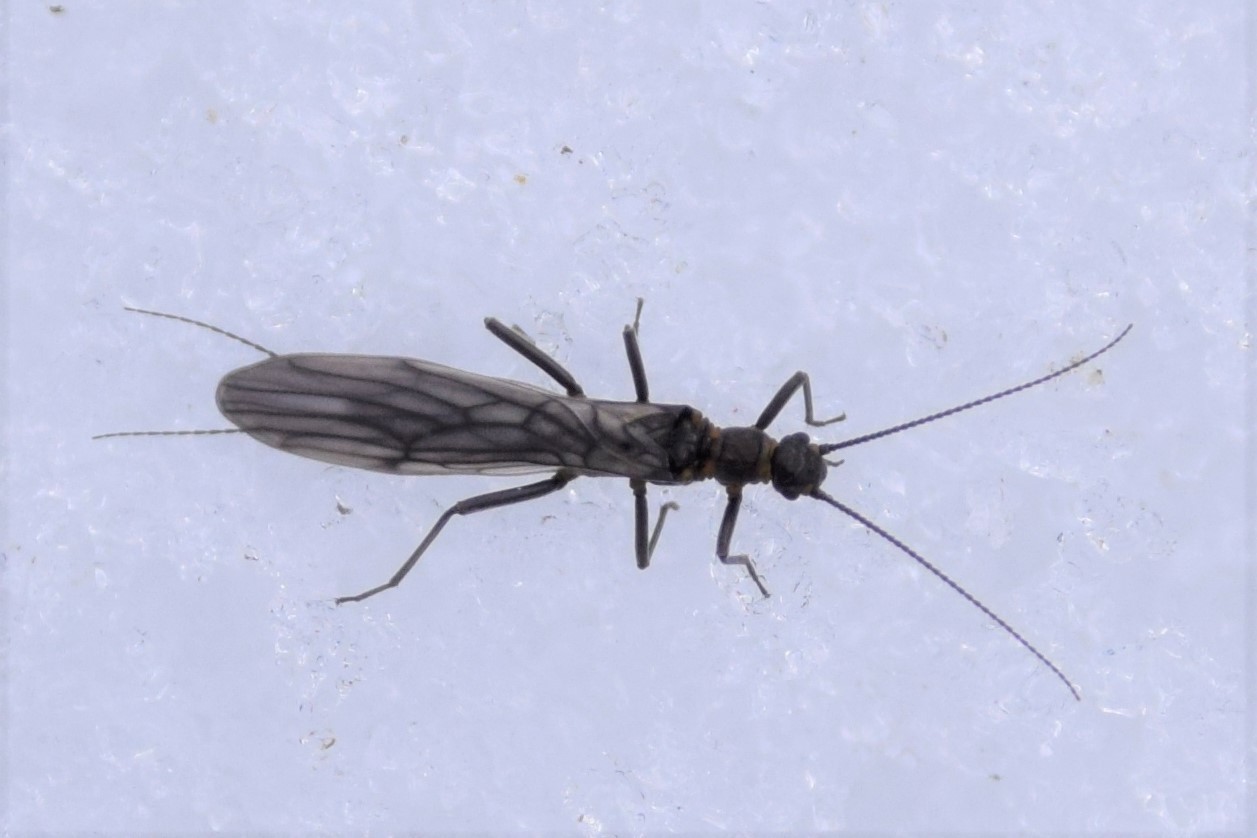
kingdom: Animalia
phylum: Arthropoda
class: Insecta
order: Plecoptera
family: Capniidae
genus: Utacapnia
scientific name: Utacapnia columbiana
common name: Columbian snowfly
